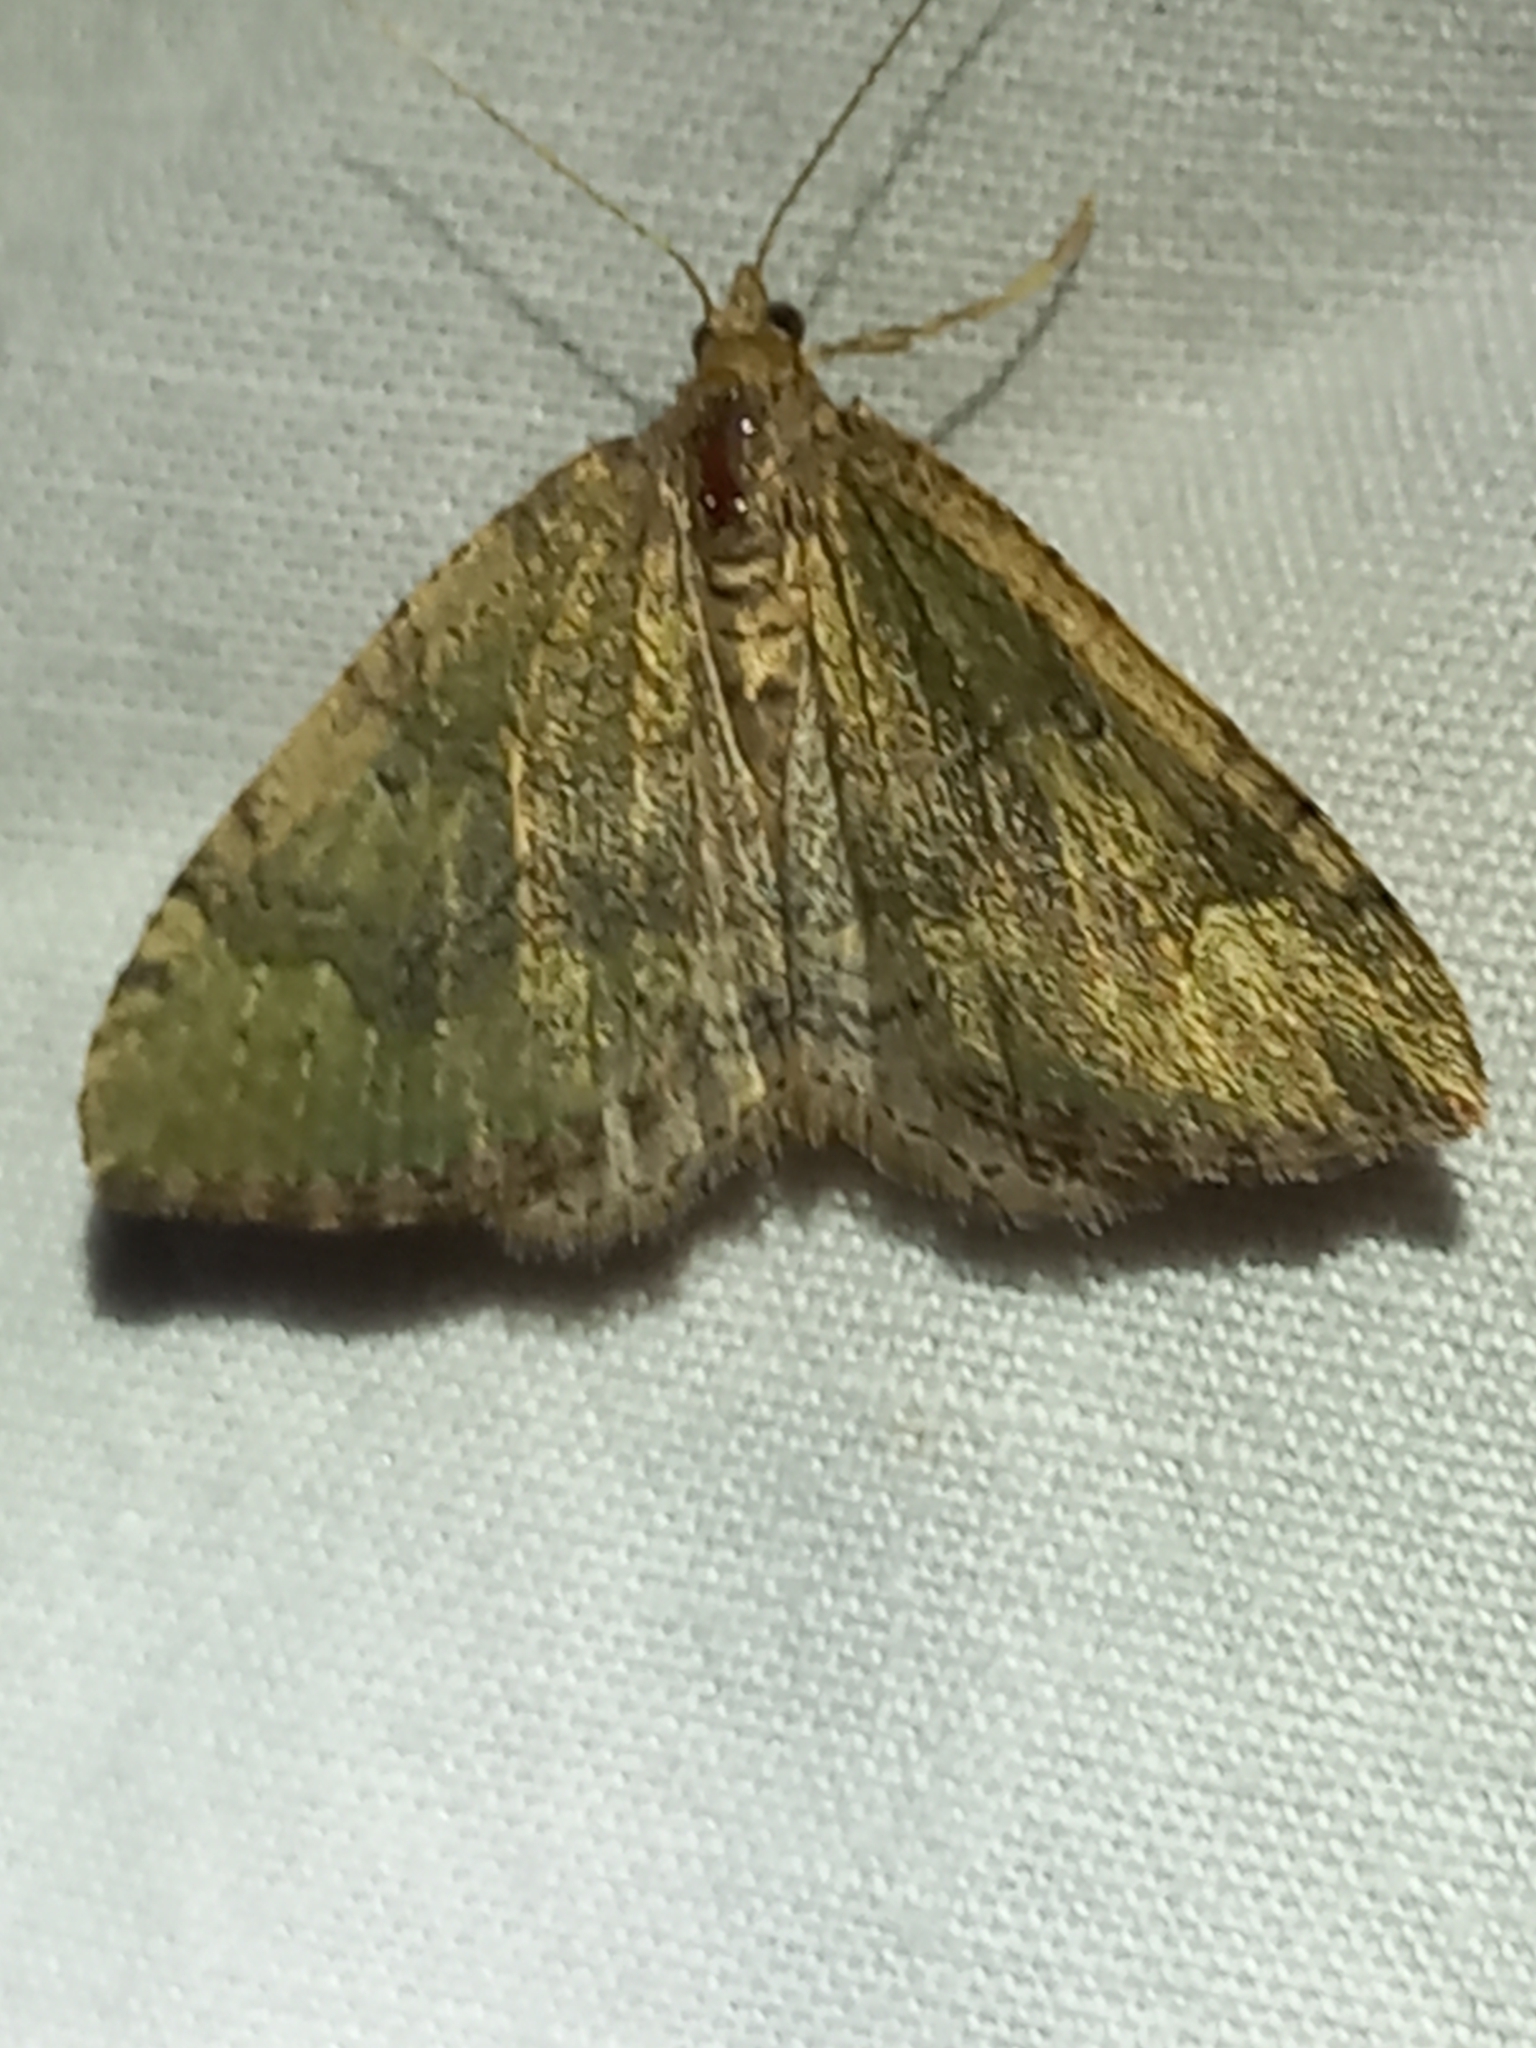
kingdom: Animalia
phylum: Arthropoda
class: Insecta
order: Lepidoptera
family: Geometridae
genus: Epyaxa
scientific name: Epyaxa rosearia
